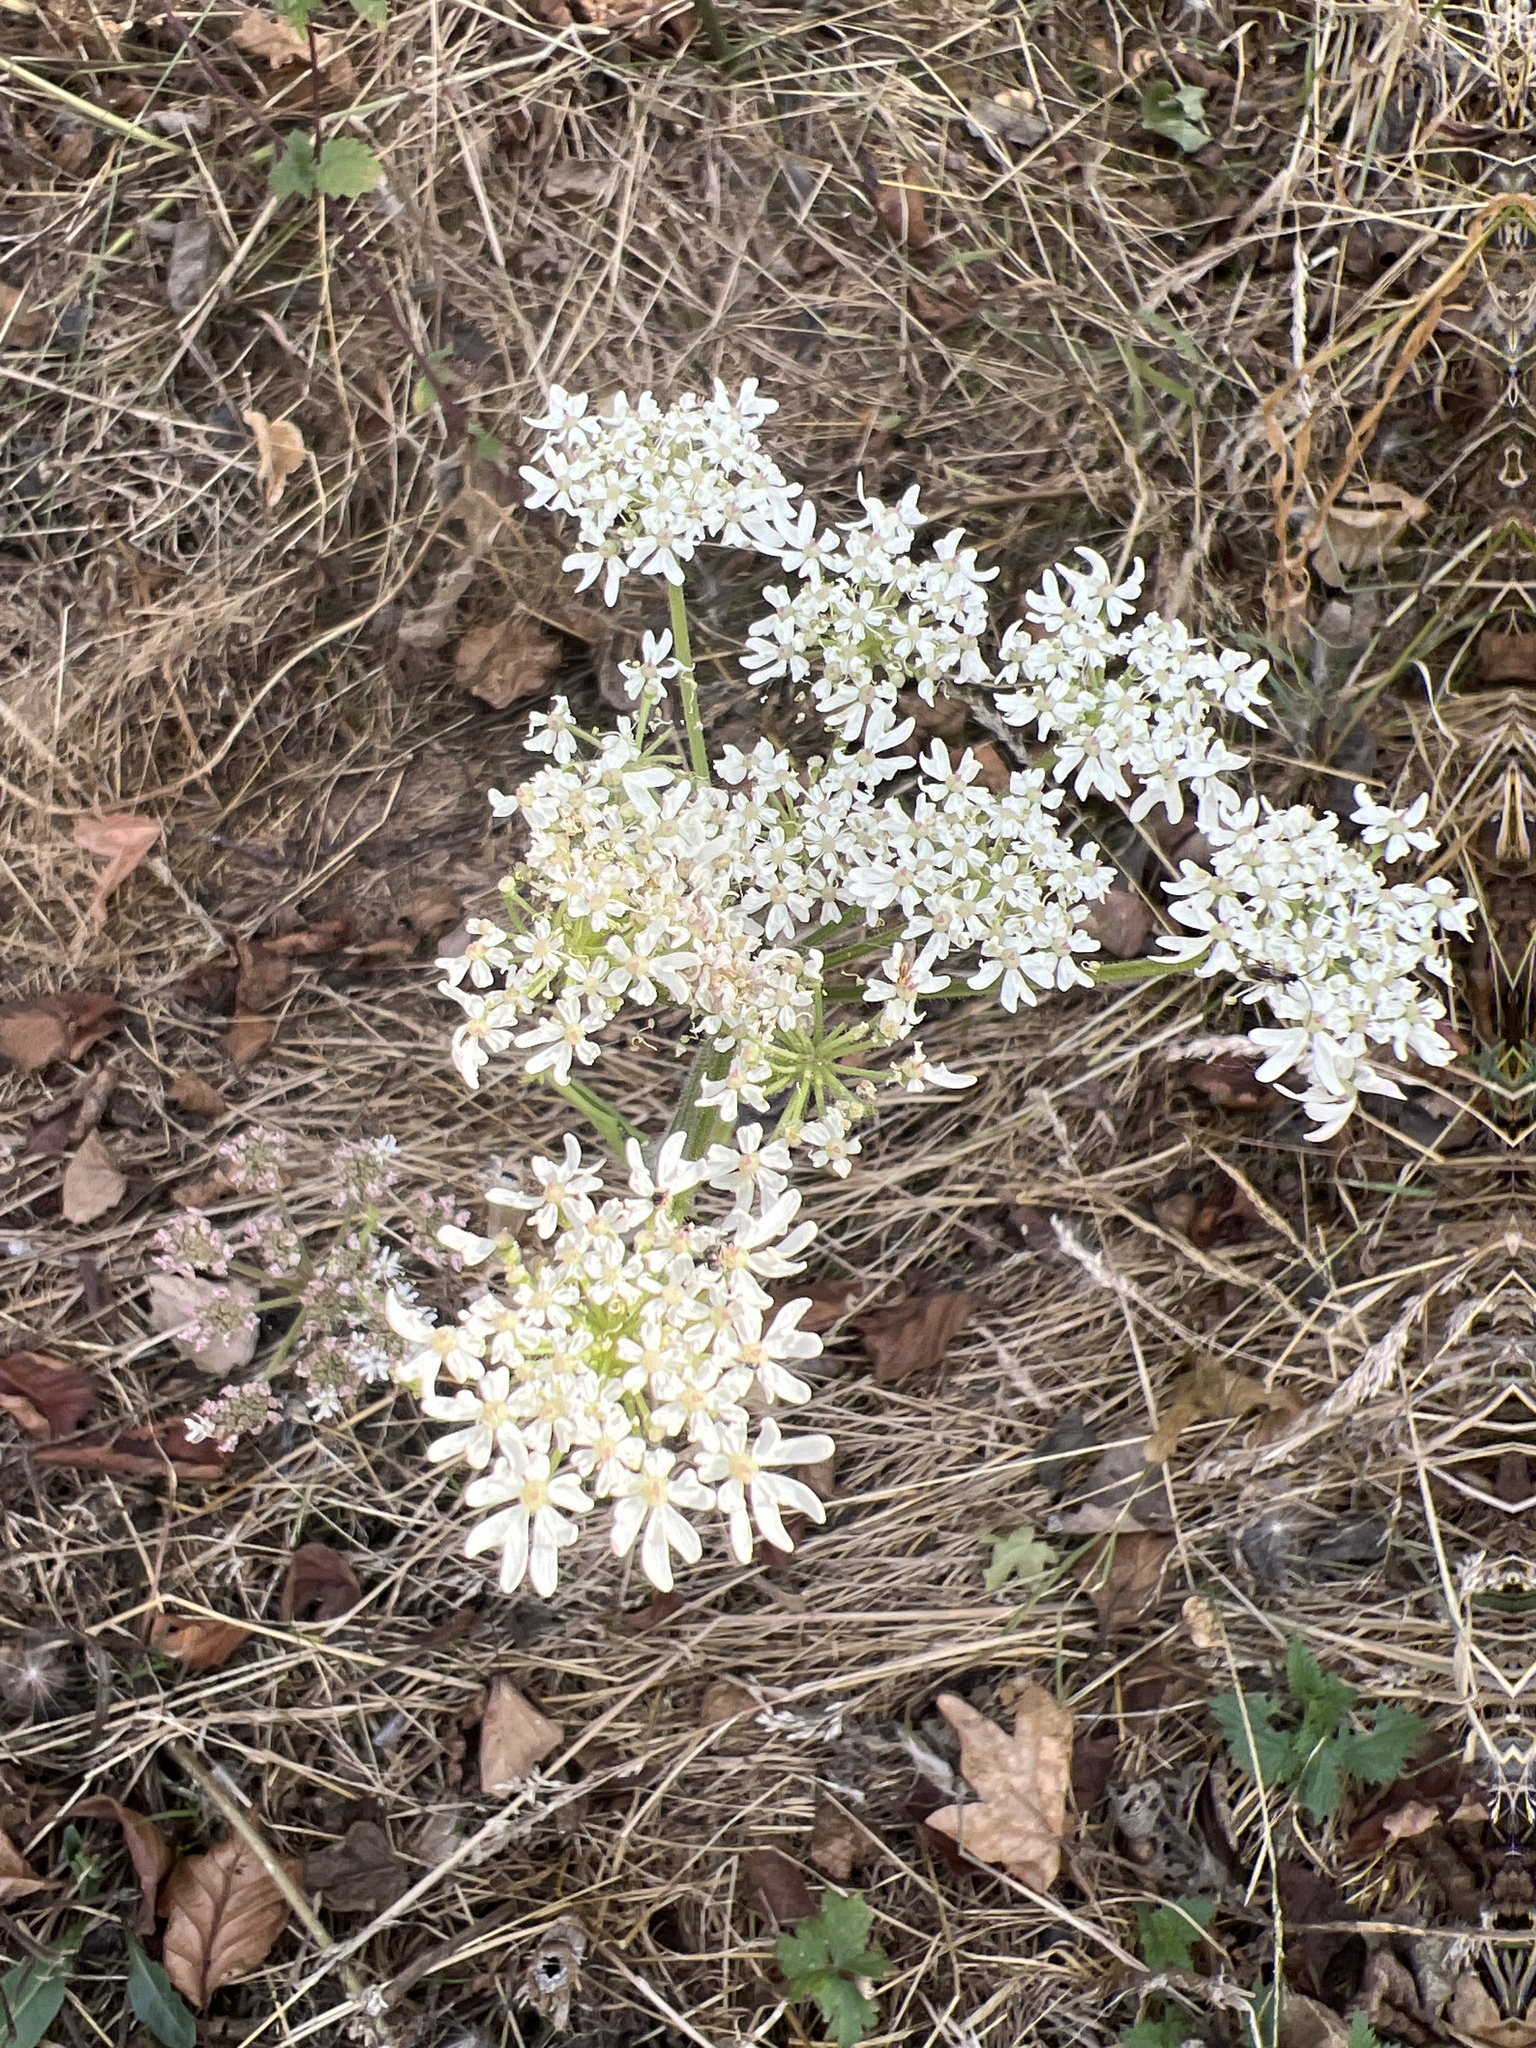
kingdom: Plantae
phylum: Tracheophyta
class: Magnoliopsida
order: Apiales
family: Apiaceae
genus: Heracleum
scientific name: Heracleum sphondylium
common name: Hogweed
